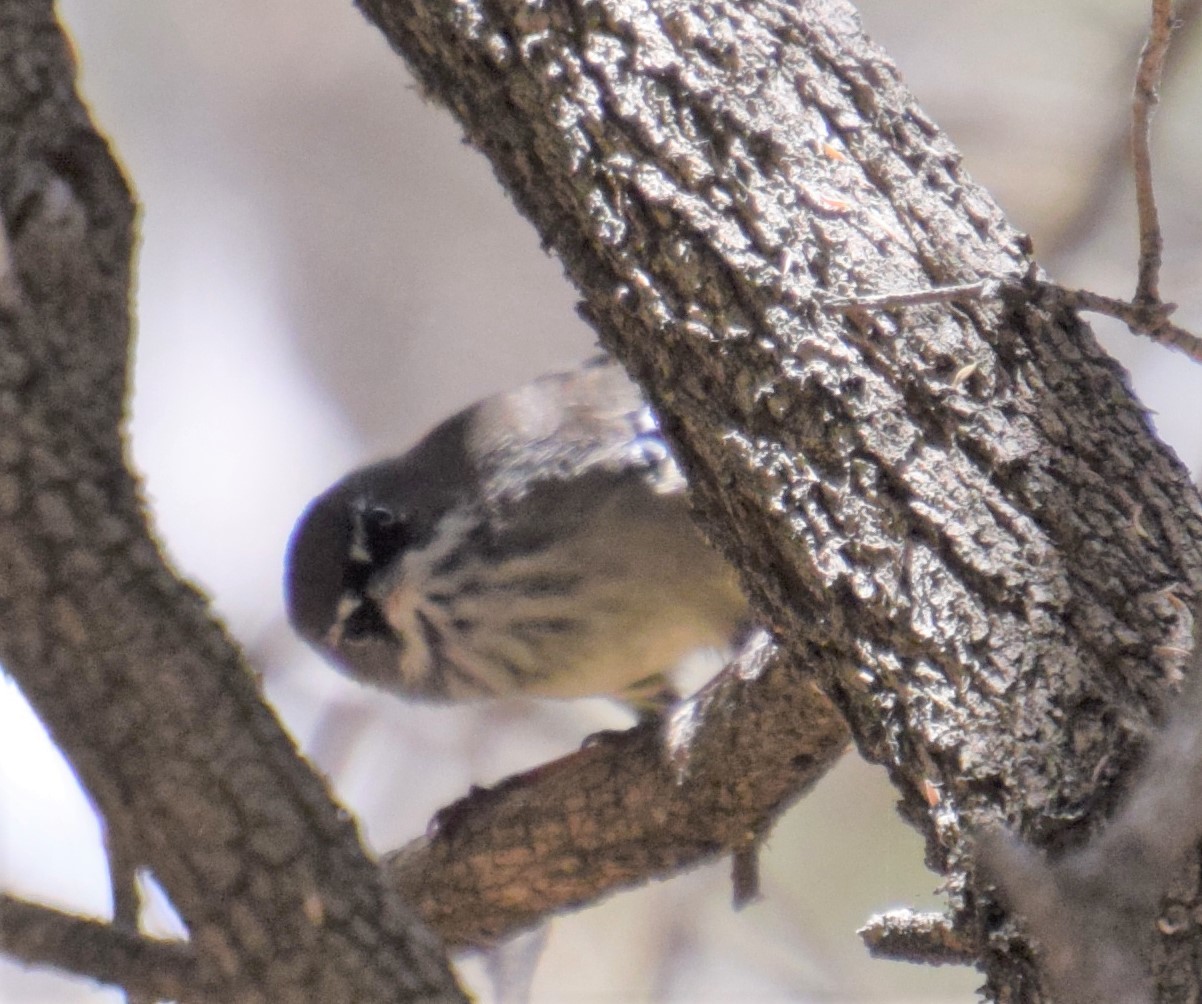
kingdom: Animalia
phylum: Chordata
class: Aves
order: Passeriformes
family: Acanthizidae
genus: Sericornis
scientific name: Sericornis maculatus
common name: Spotted scrubwren
